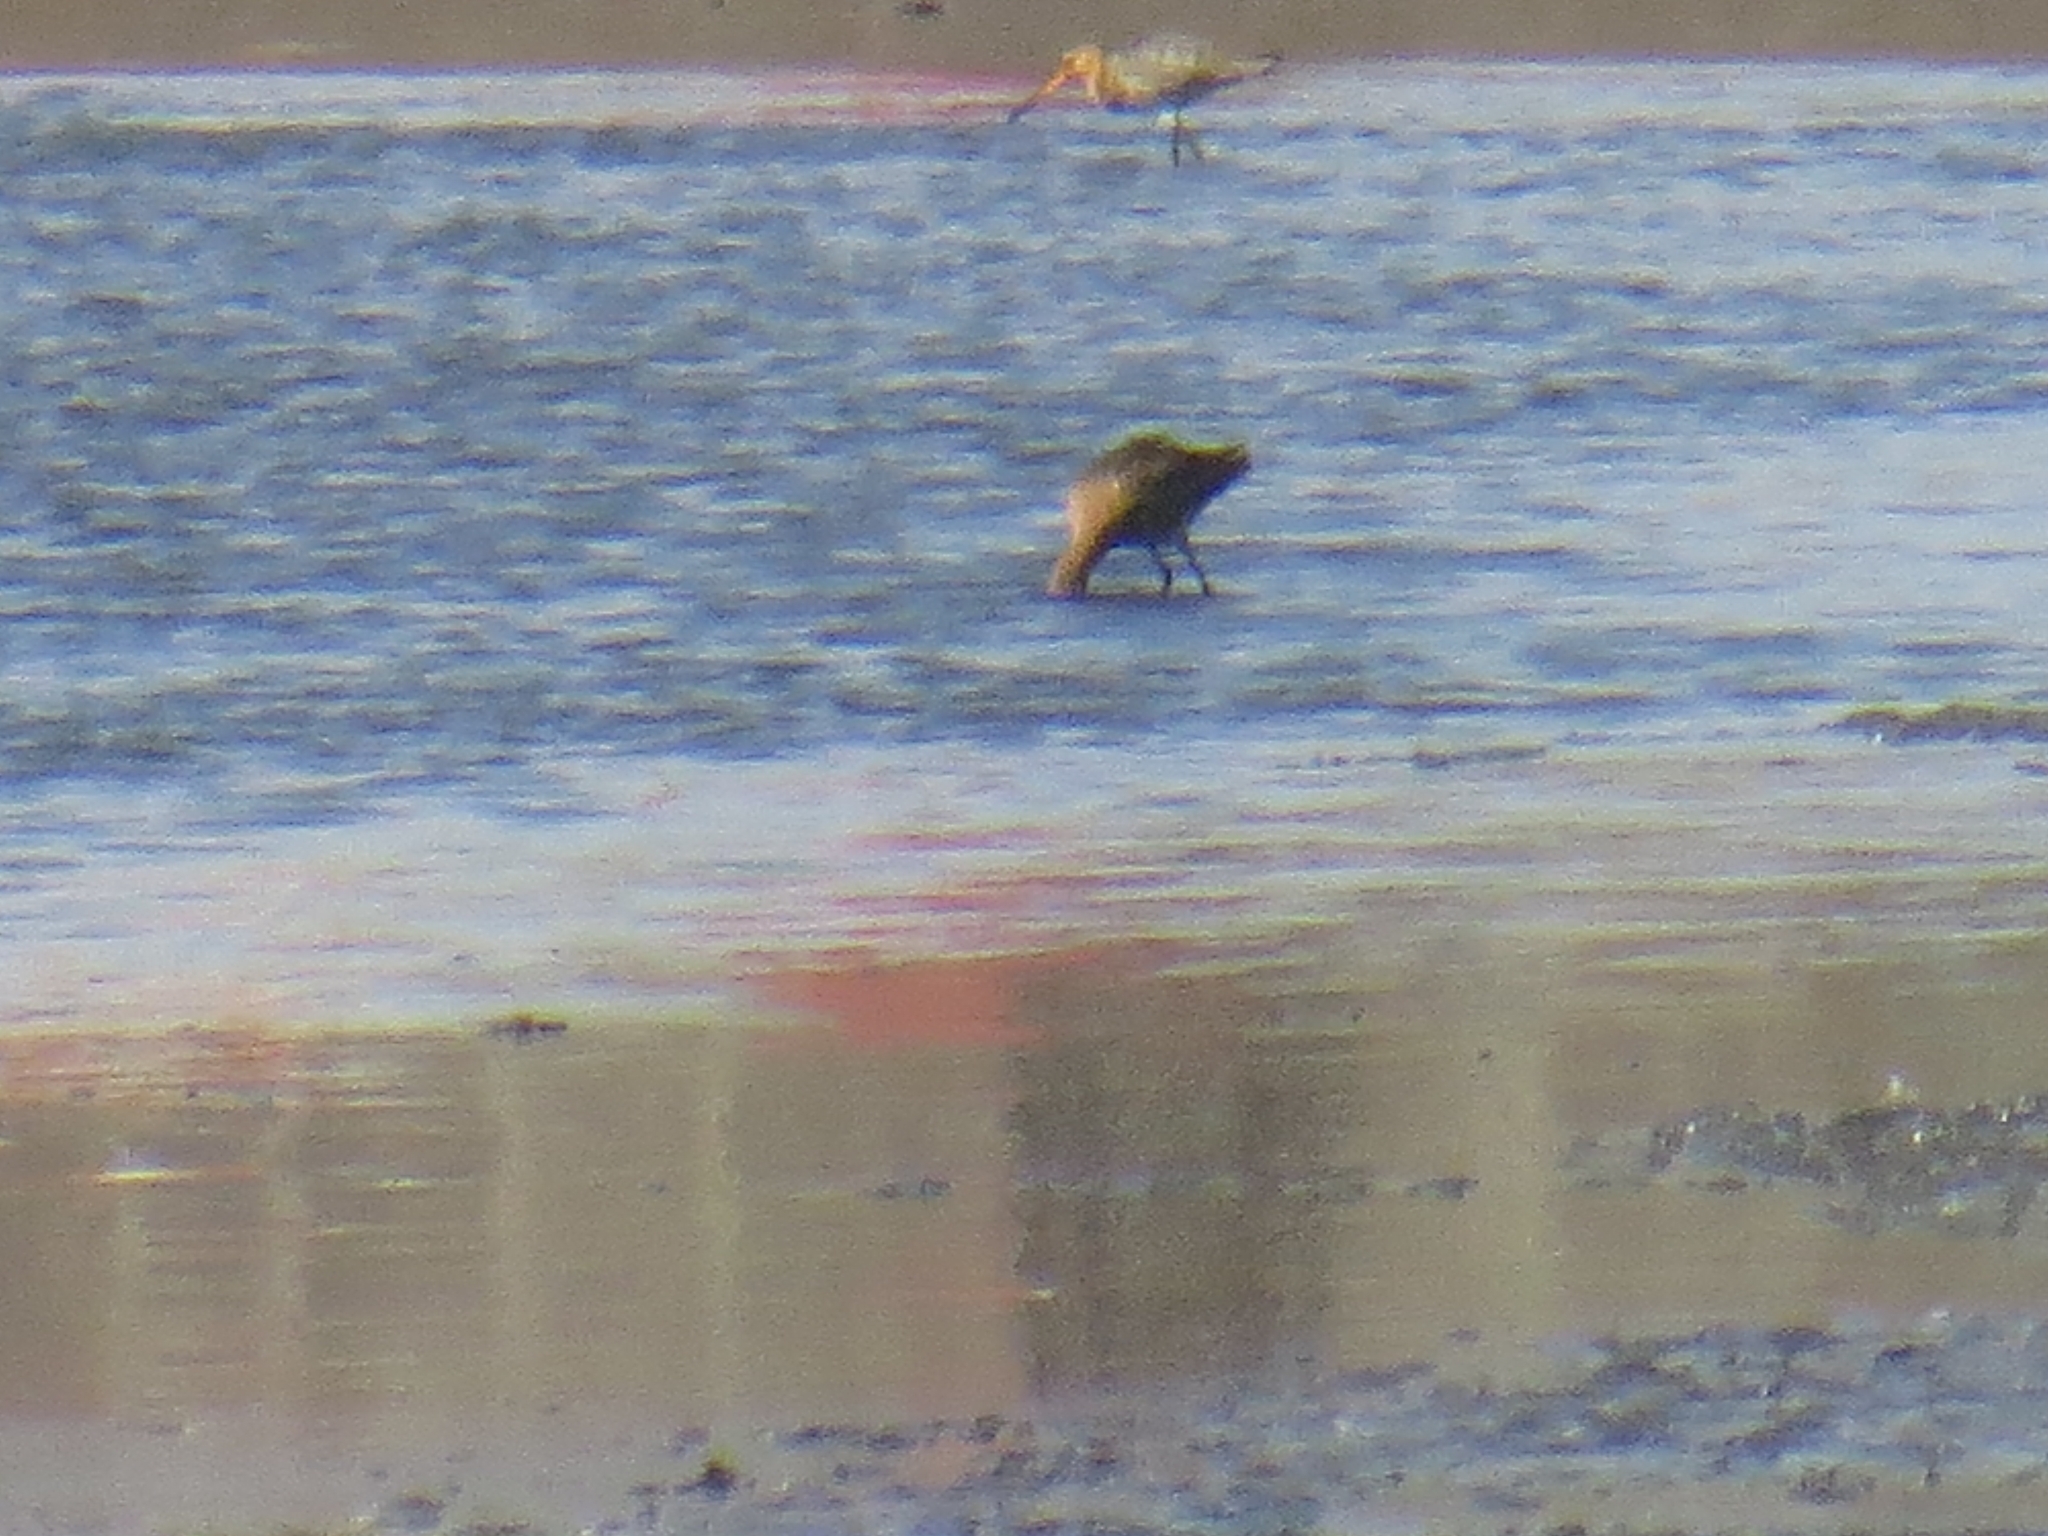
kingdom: Animalia
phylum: Chordata
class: Aves
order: Charadriiformes
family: Scolopacidae
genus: Limosa
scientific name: Limosa limosa
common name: Black-tailed godwit
